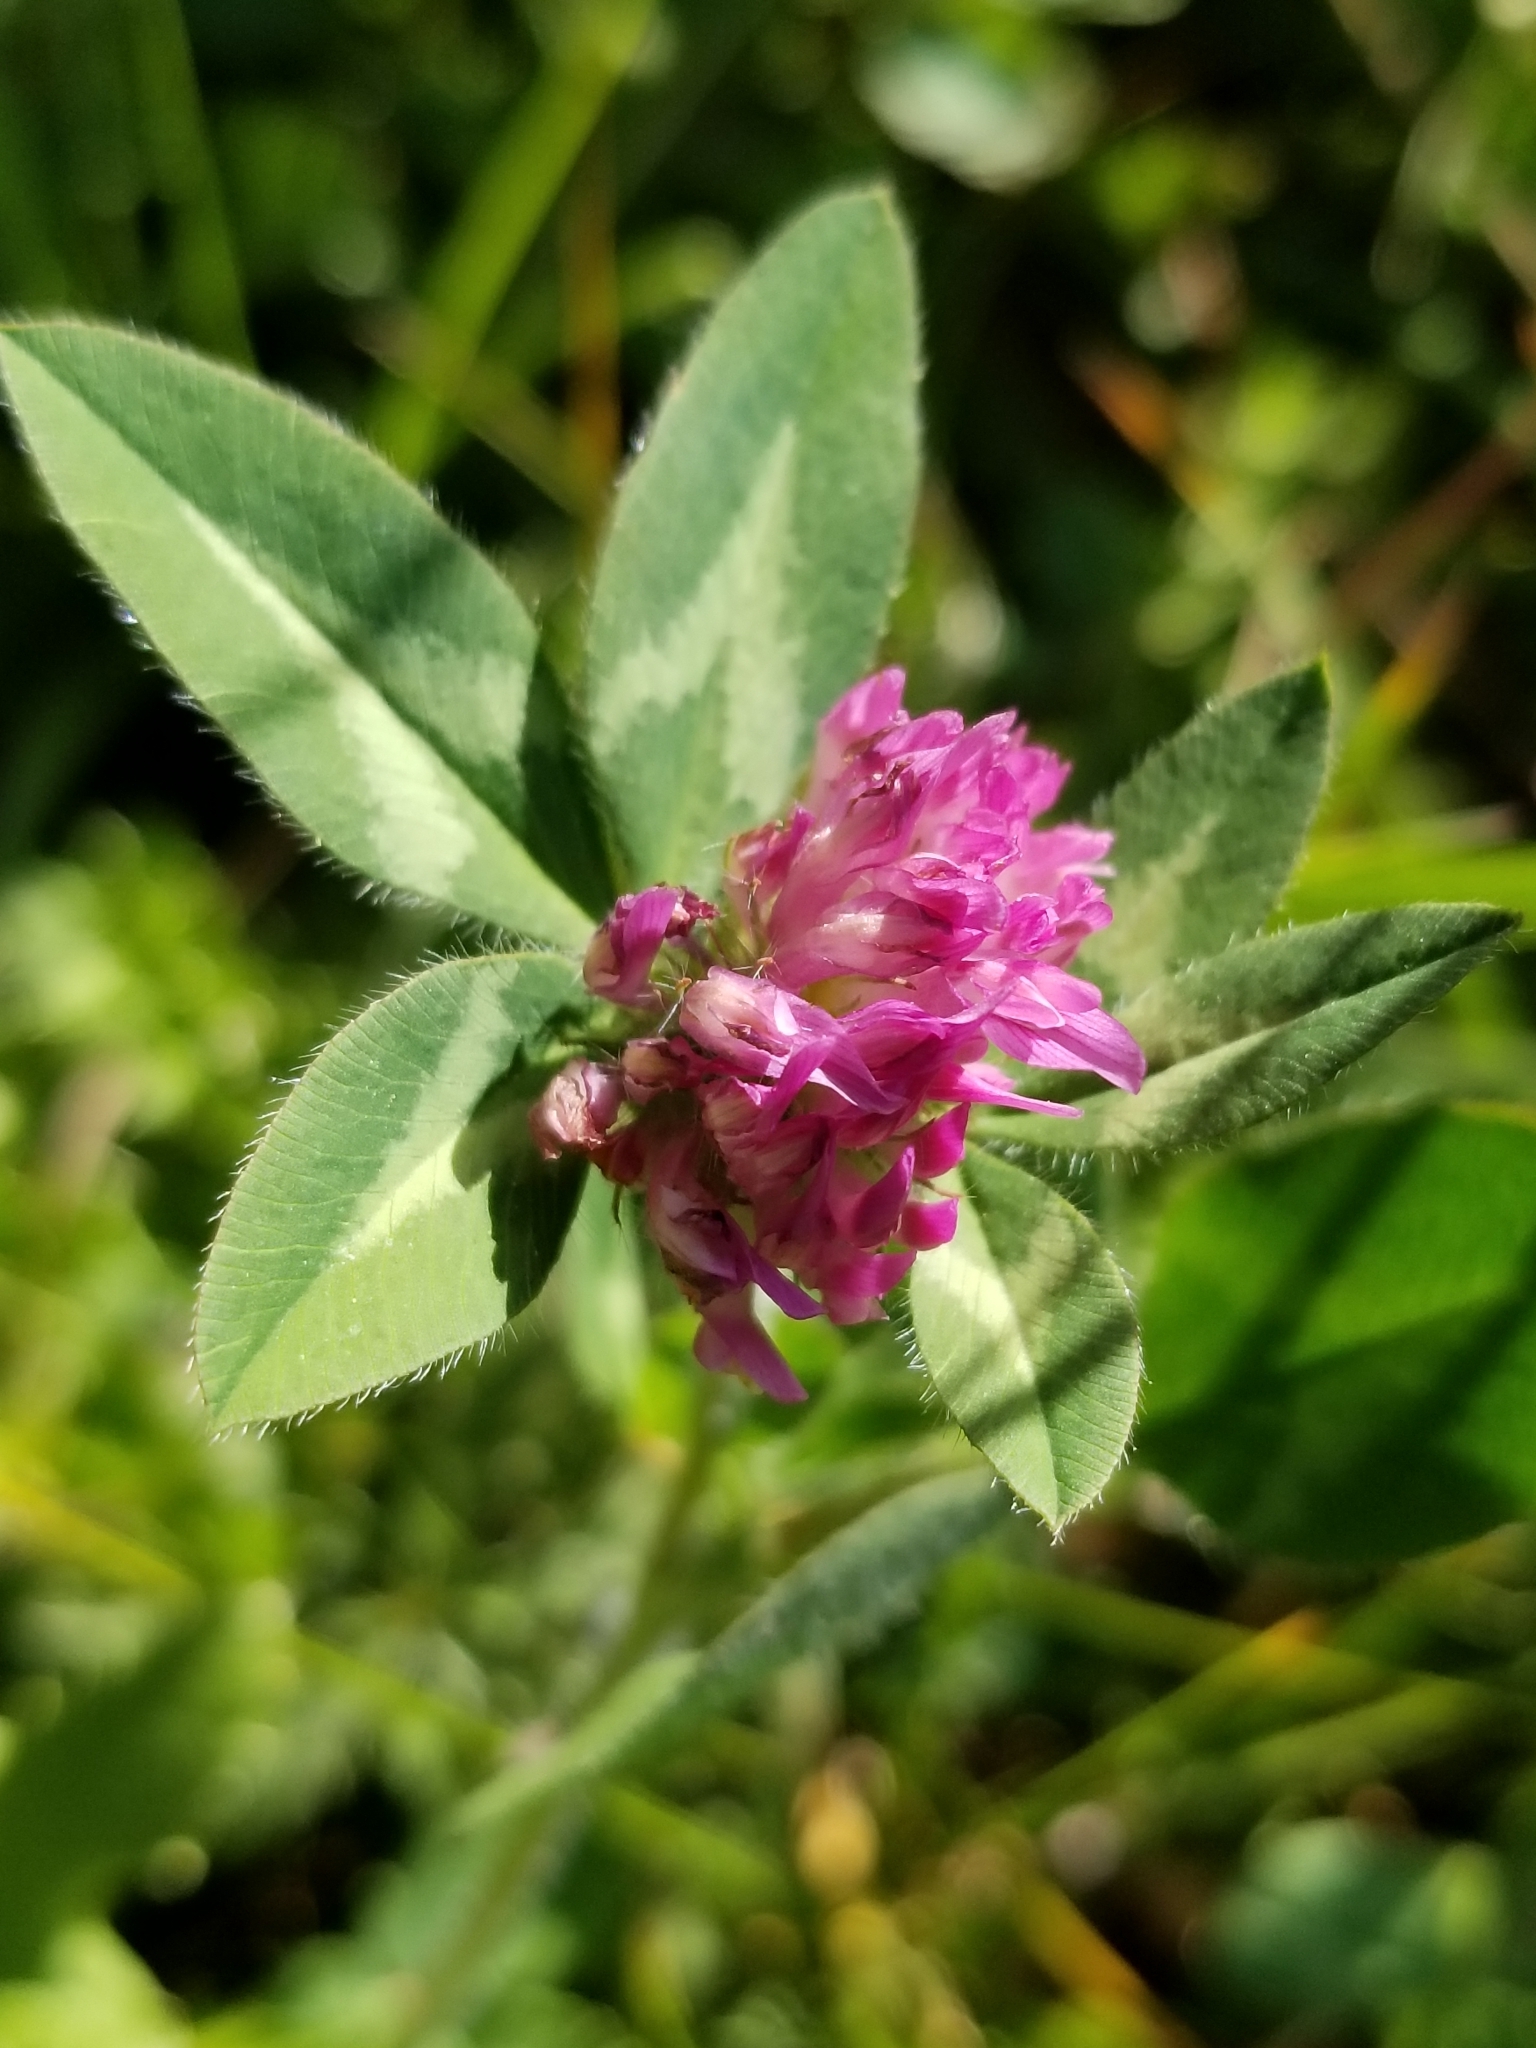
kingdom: Plantae
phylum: Tracheophyta
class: Magnoliopsida
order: Fabales
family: Fabaceae
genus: Trifolium
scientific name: Trifolium pratense
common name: Red clover
